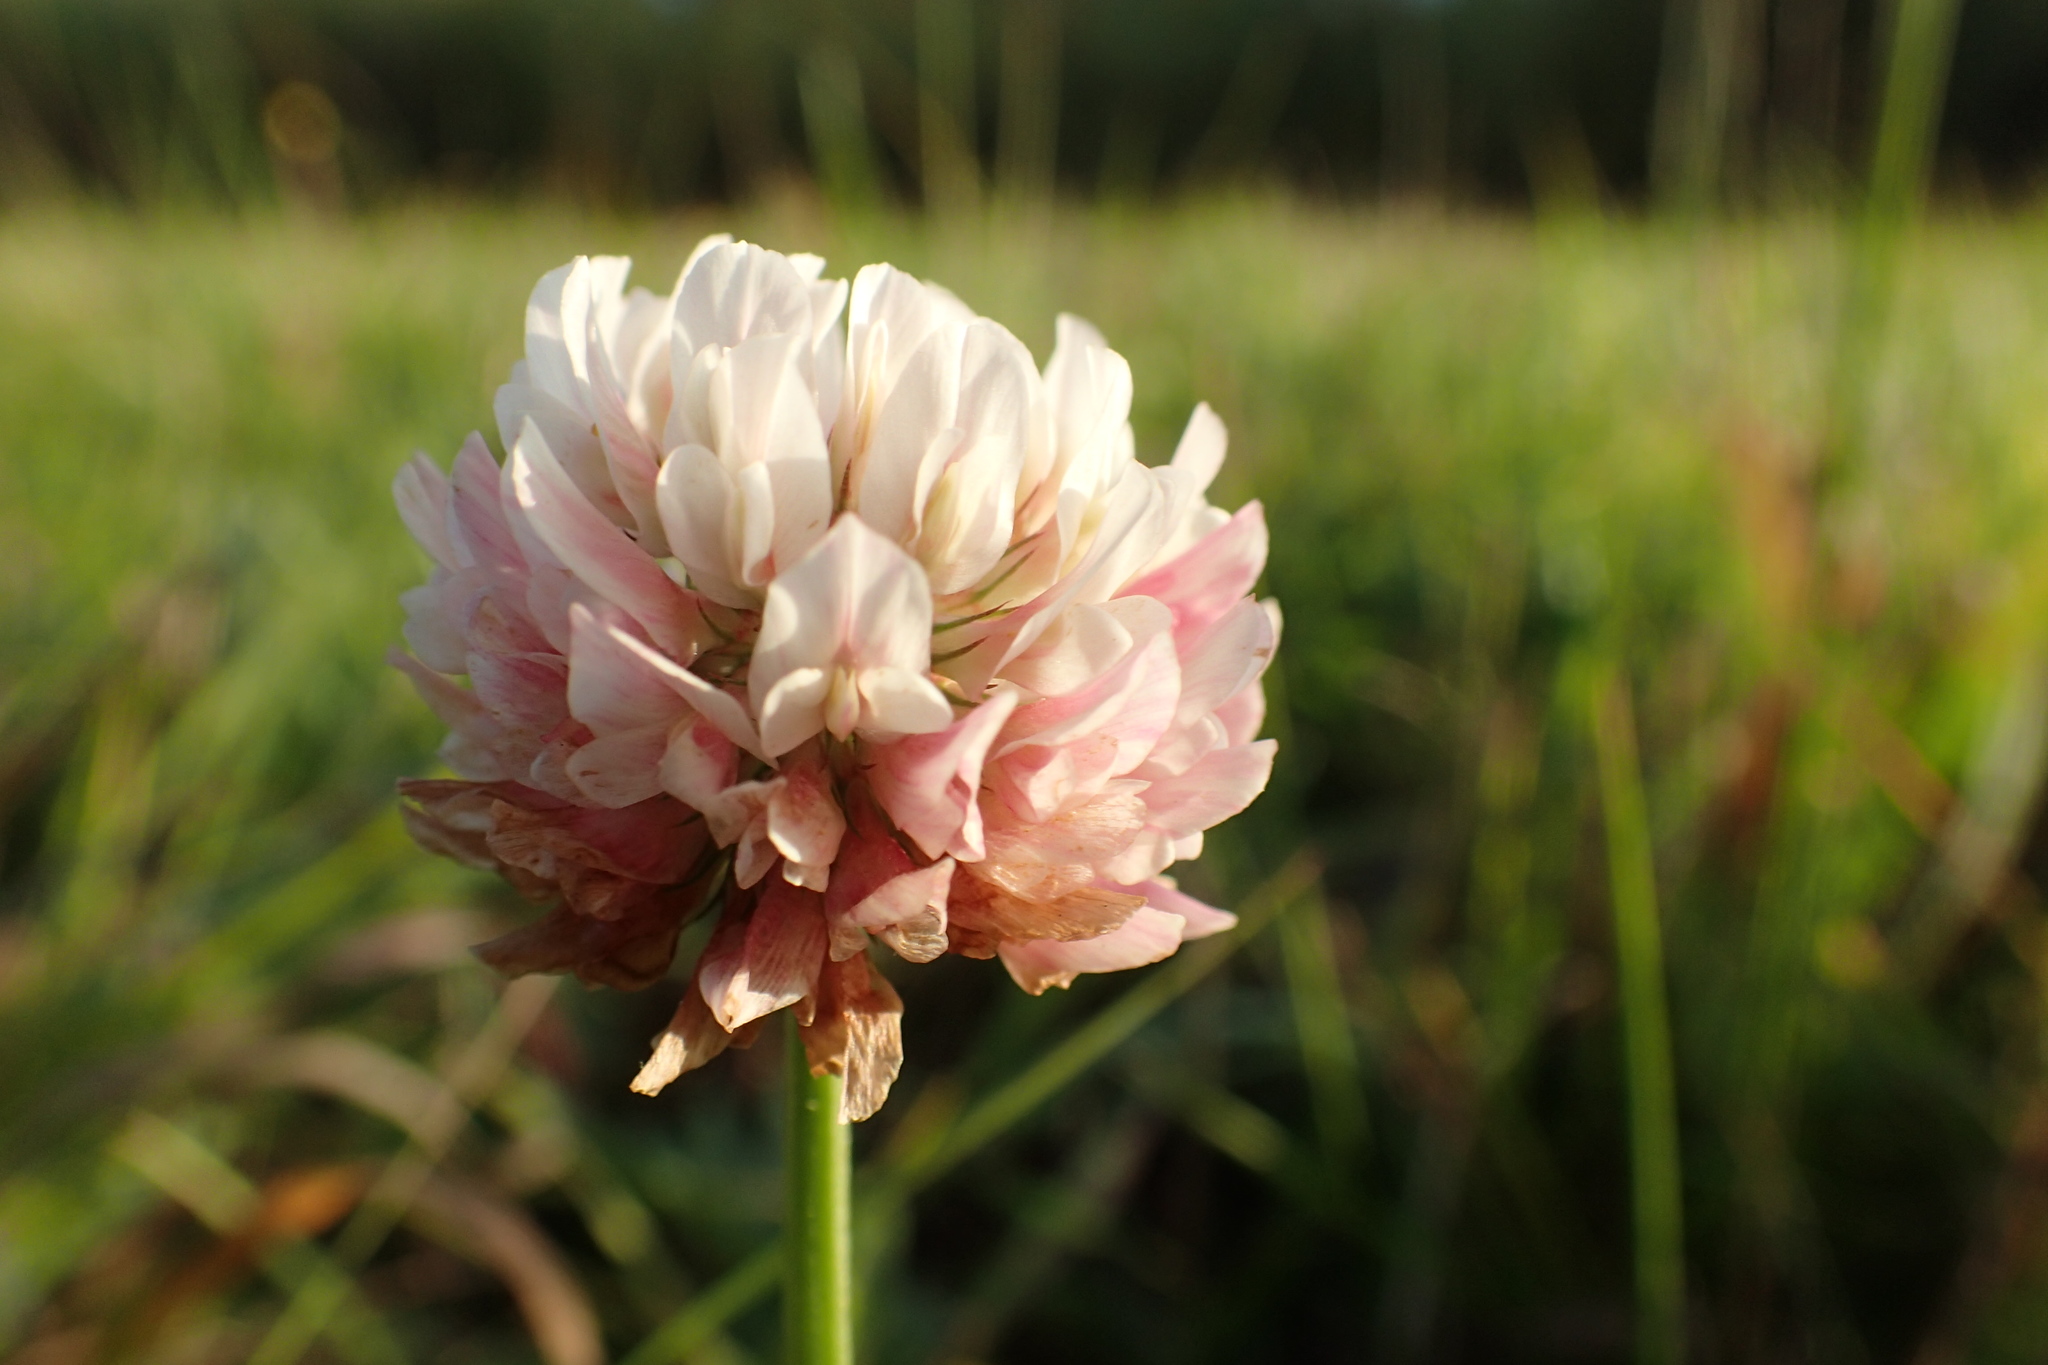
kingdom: Plantae
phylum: Tracheophyta
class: Magnoliopsida
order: Fabales
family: Fabaceae
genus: Trifolium
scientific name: Trifolium hybridum
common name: Alsike clover
